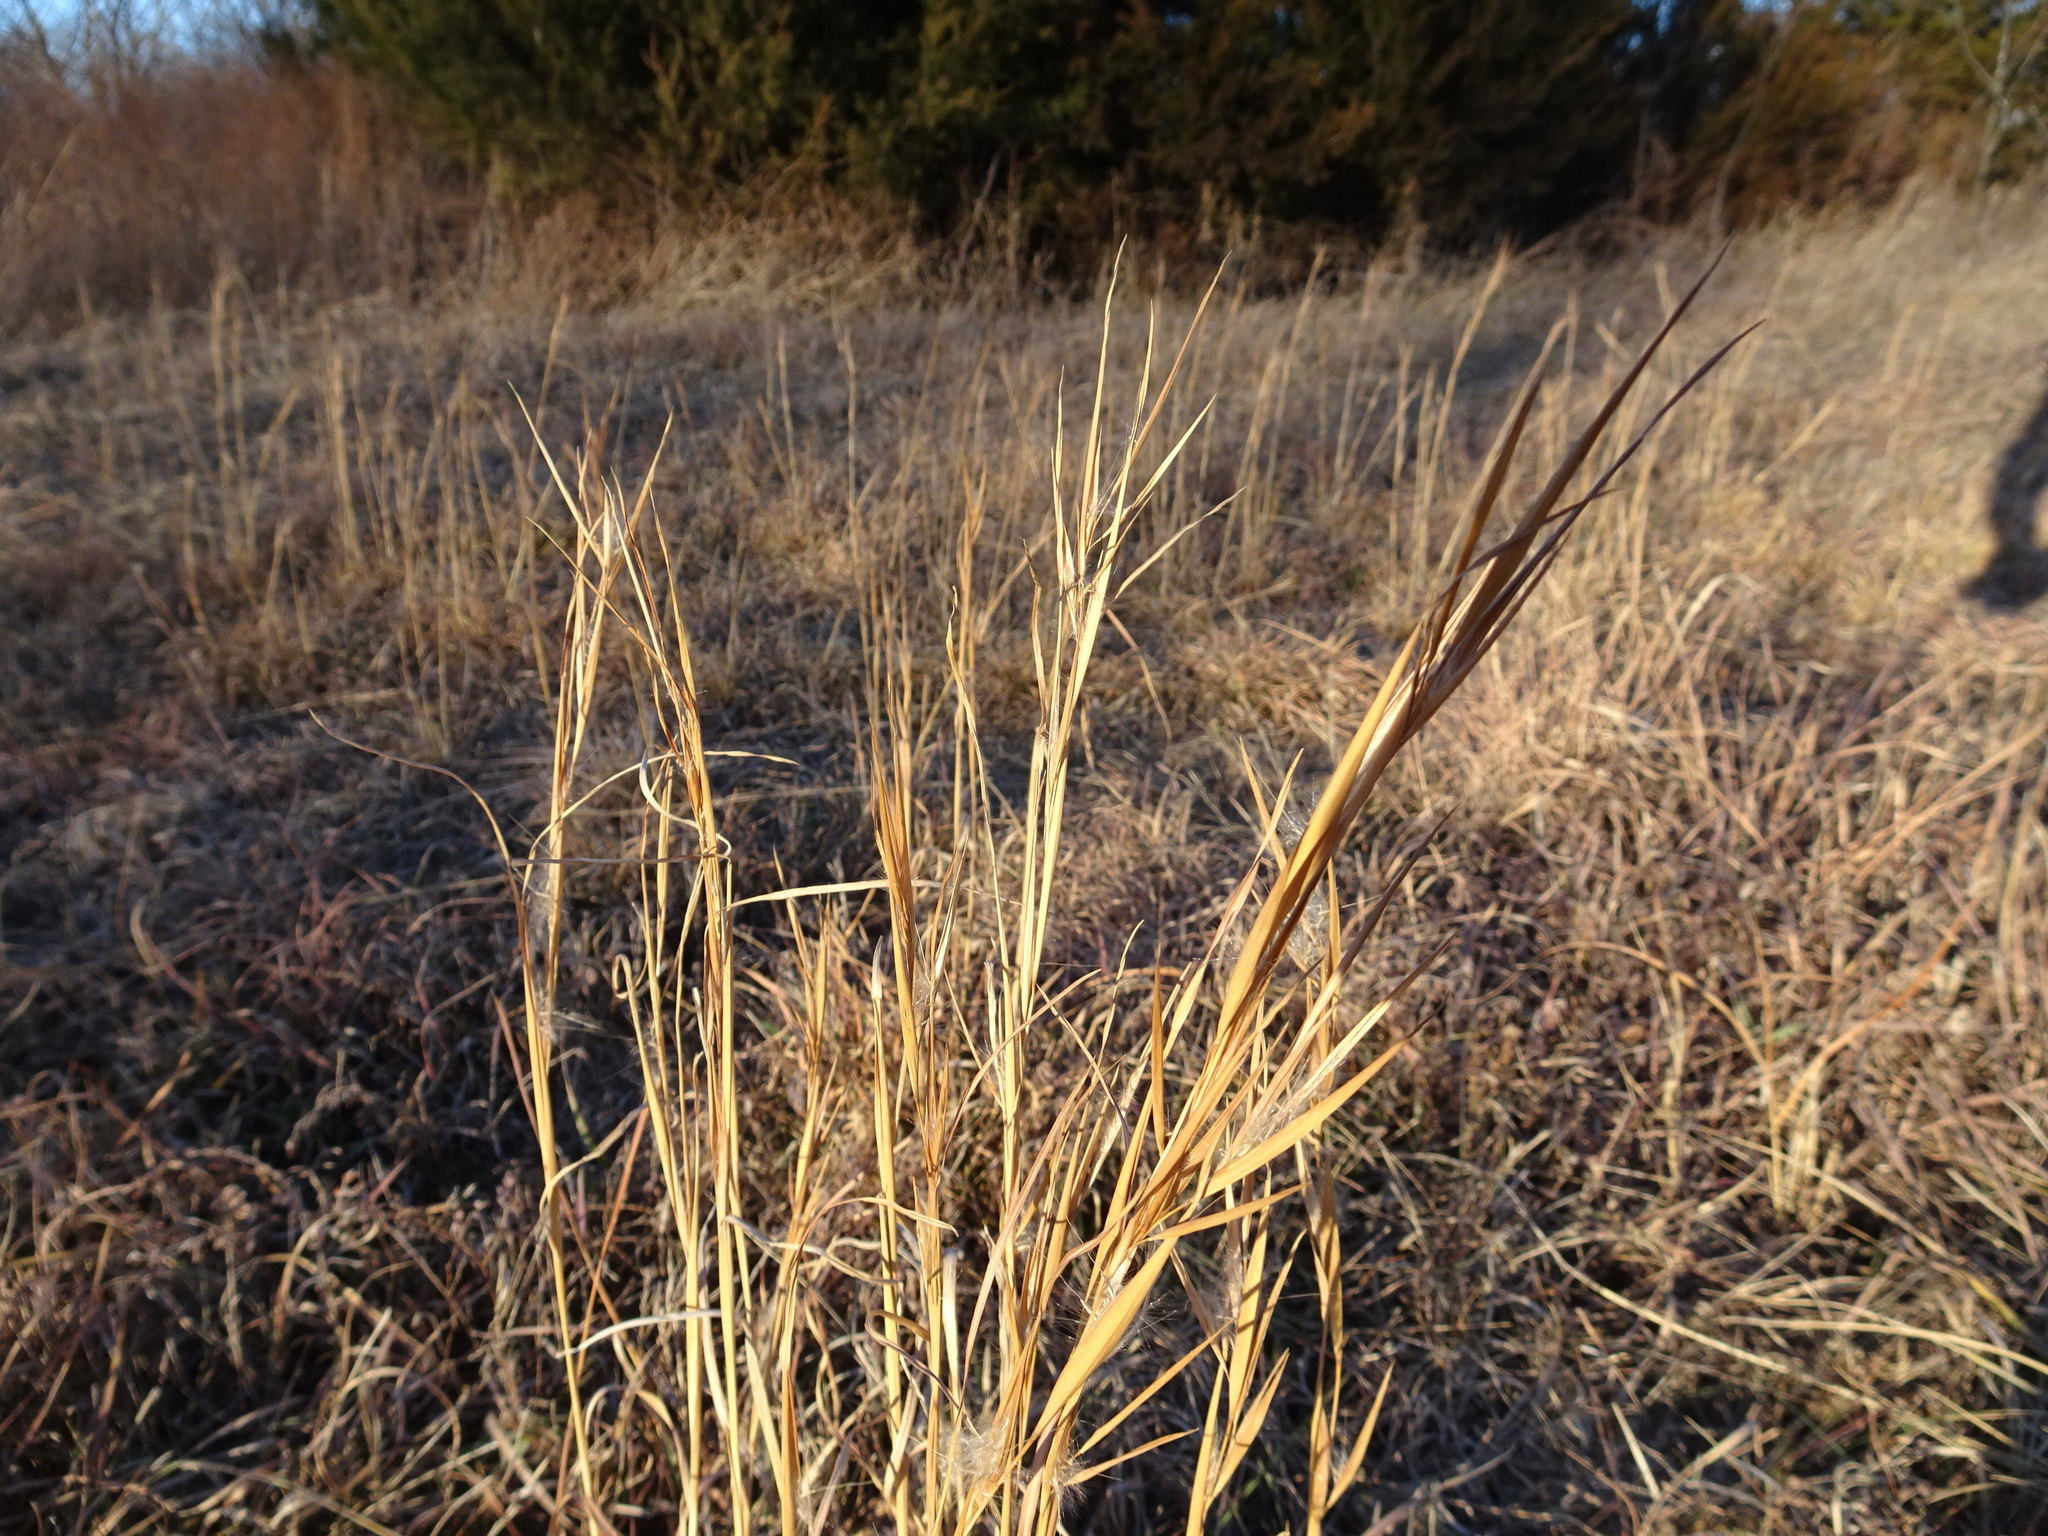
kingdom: Plantae
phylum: Tracheophyta
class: Liliopsida
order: Poales
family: Poaceae
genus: Andropogon
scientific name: Andropogon virginicus
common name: Broomsedge bluestem
